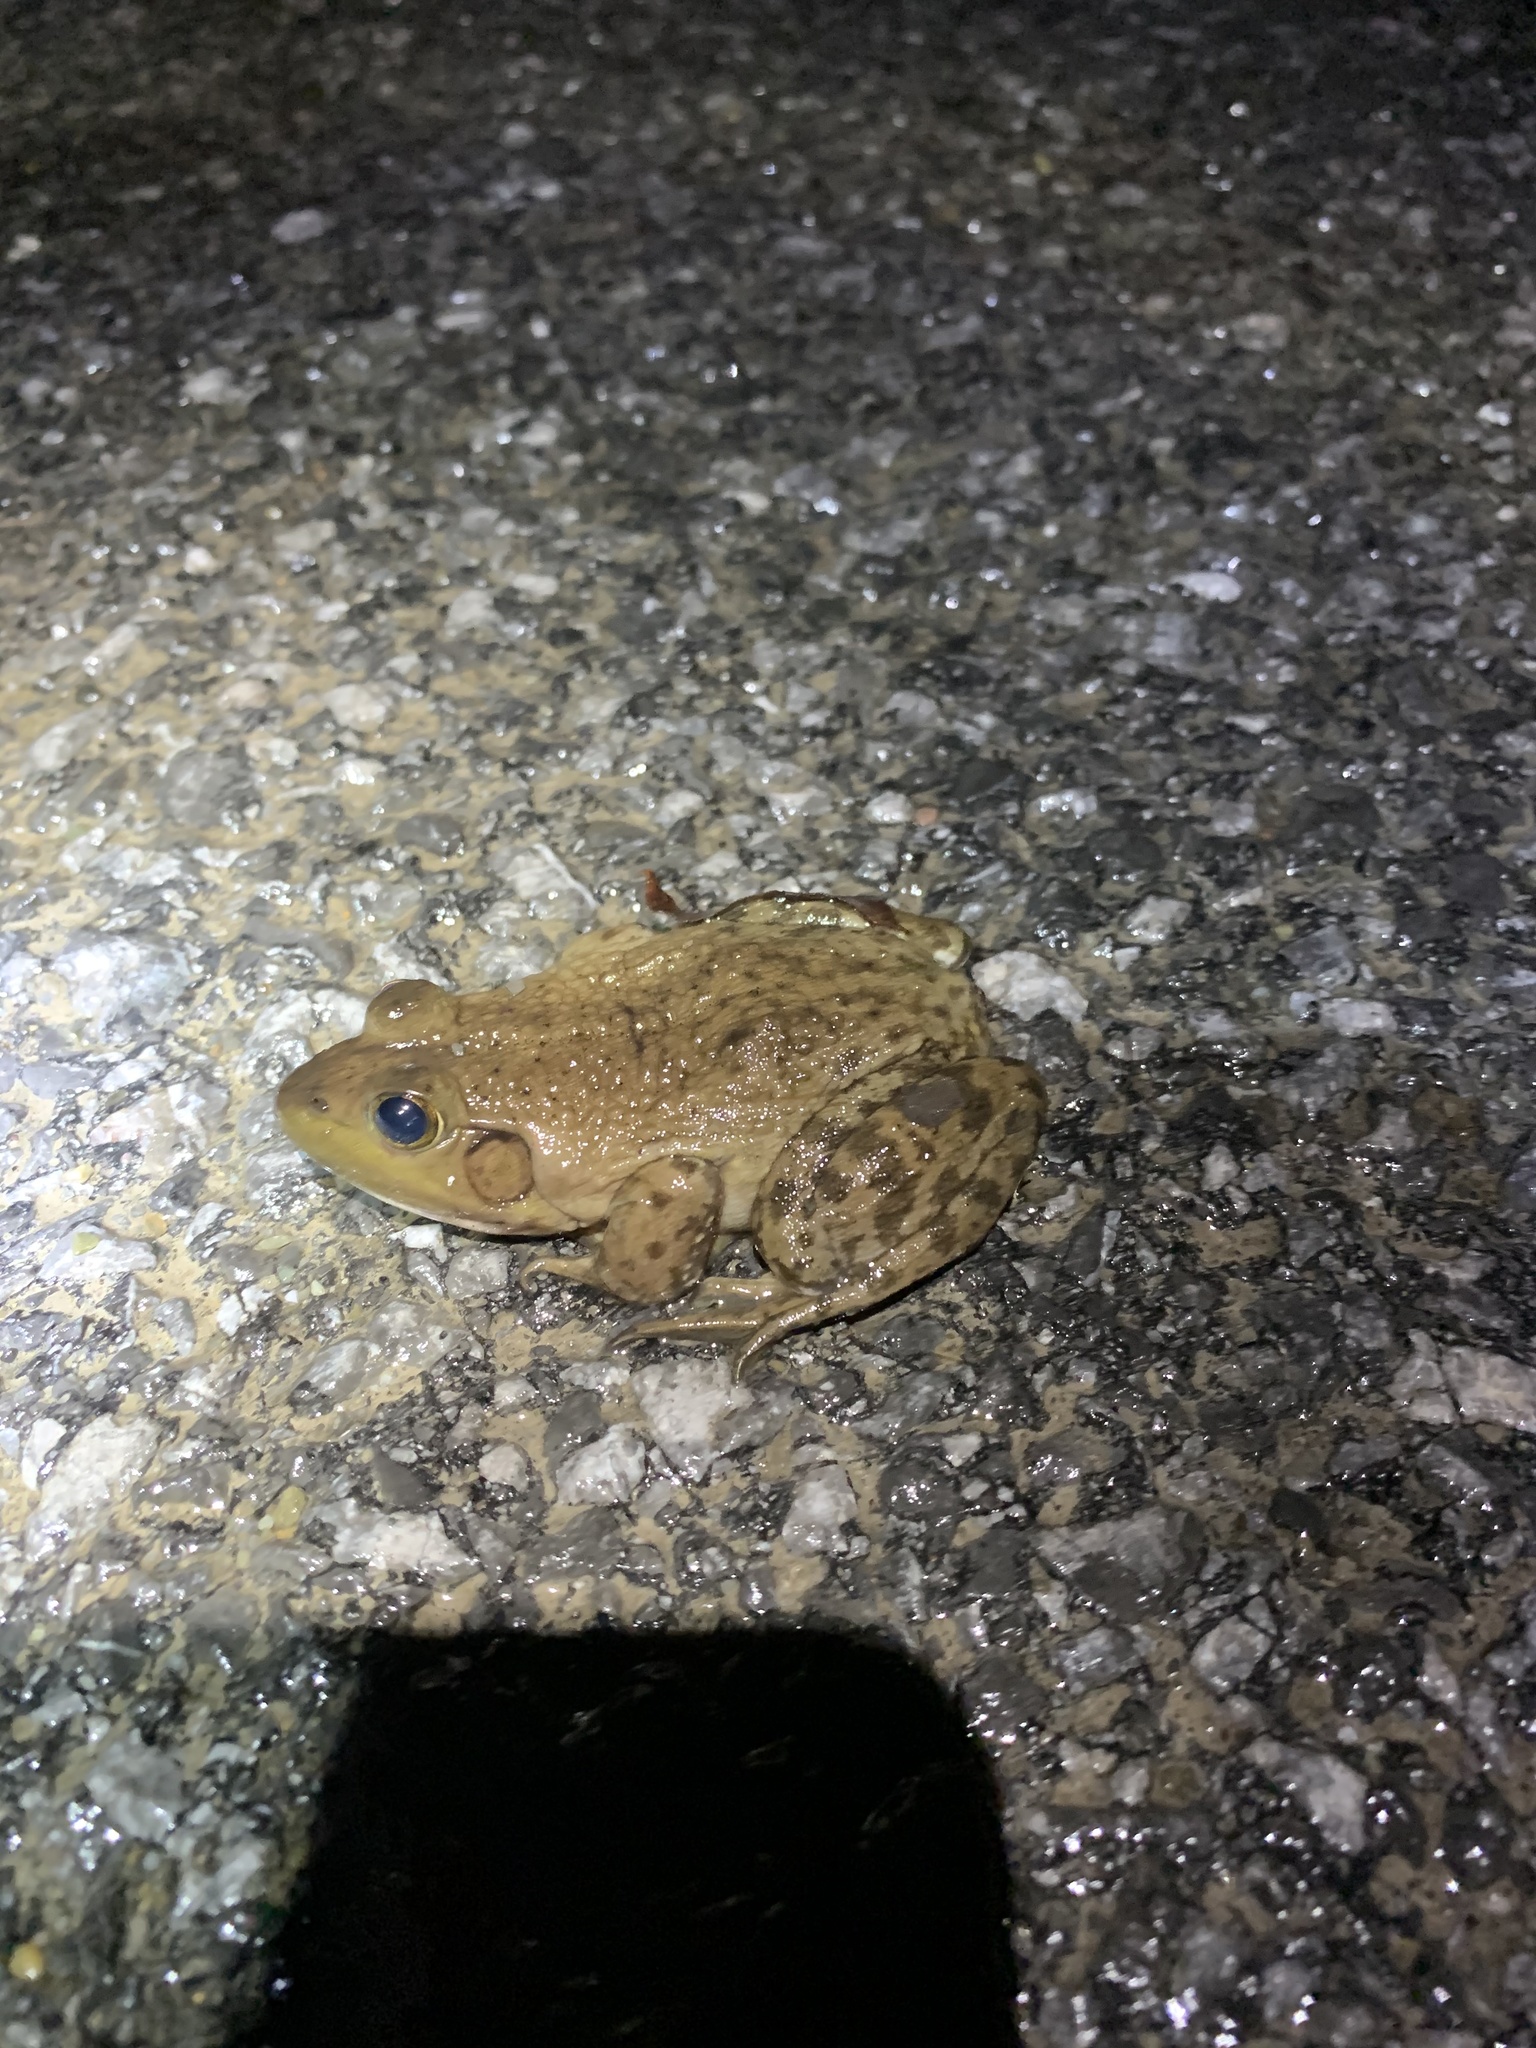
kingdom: Animalia
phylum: Chordata
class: Amphibia
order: Anura
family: Ranidae
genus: Lithobates
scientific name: Lithobates catesbeianus
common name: American bullfrog
